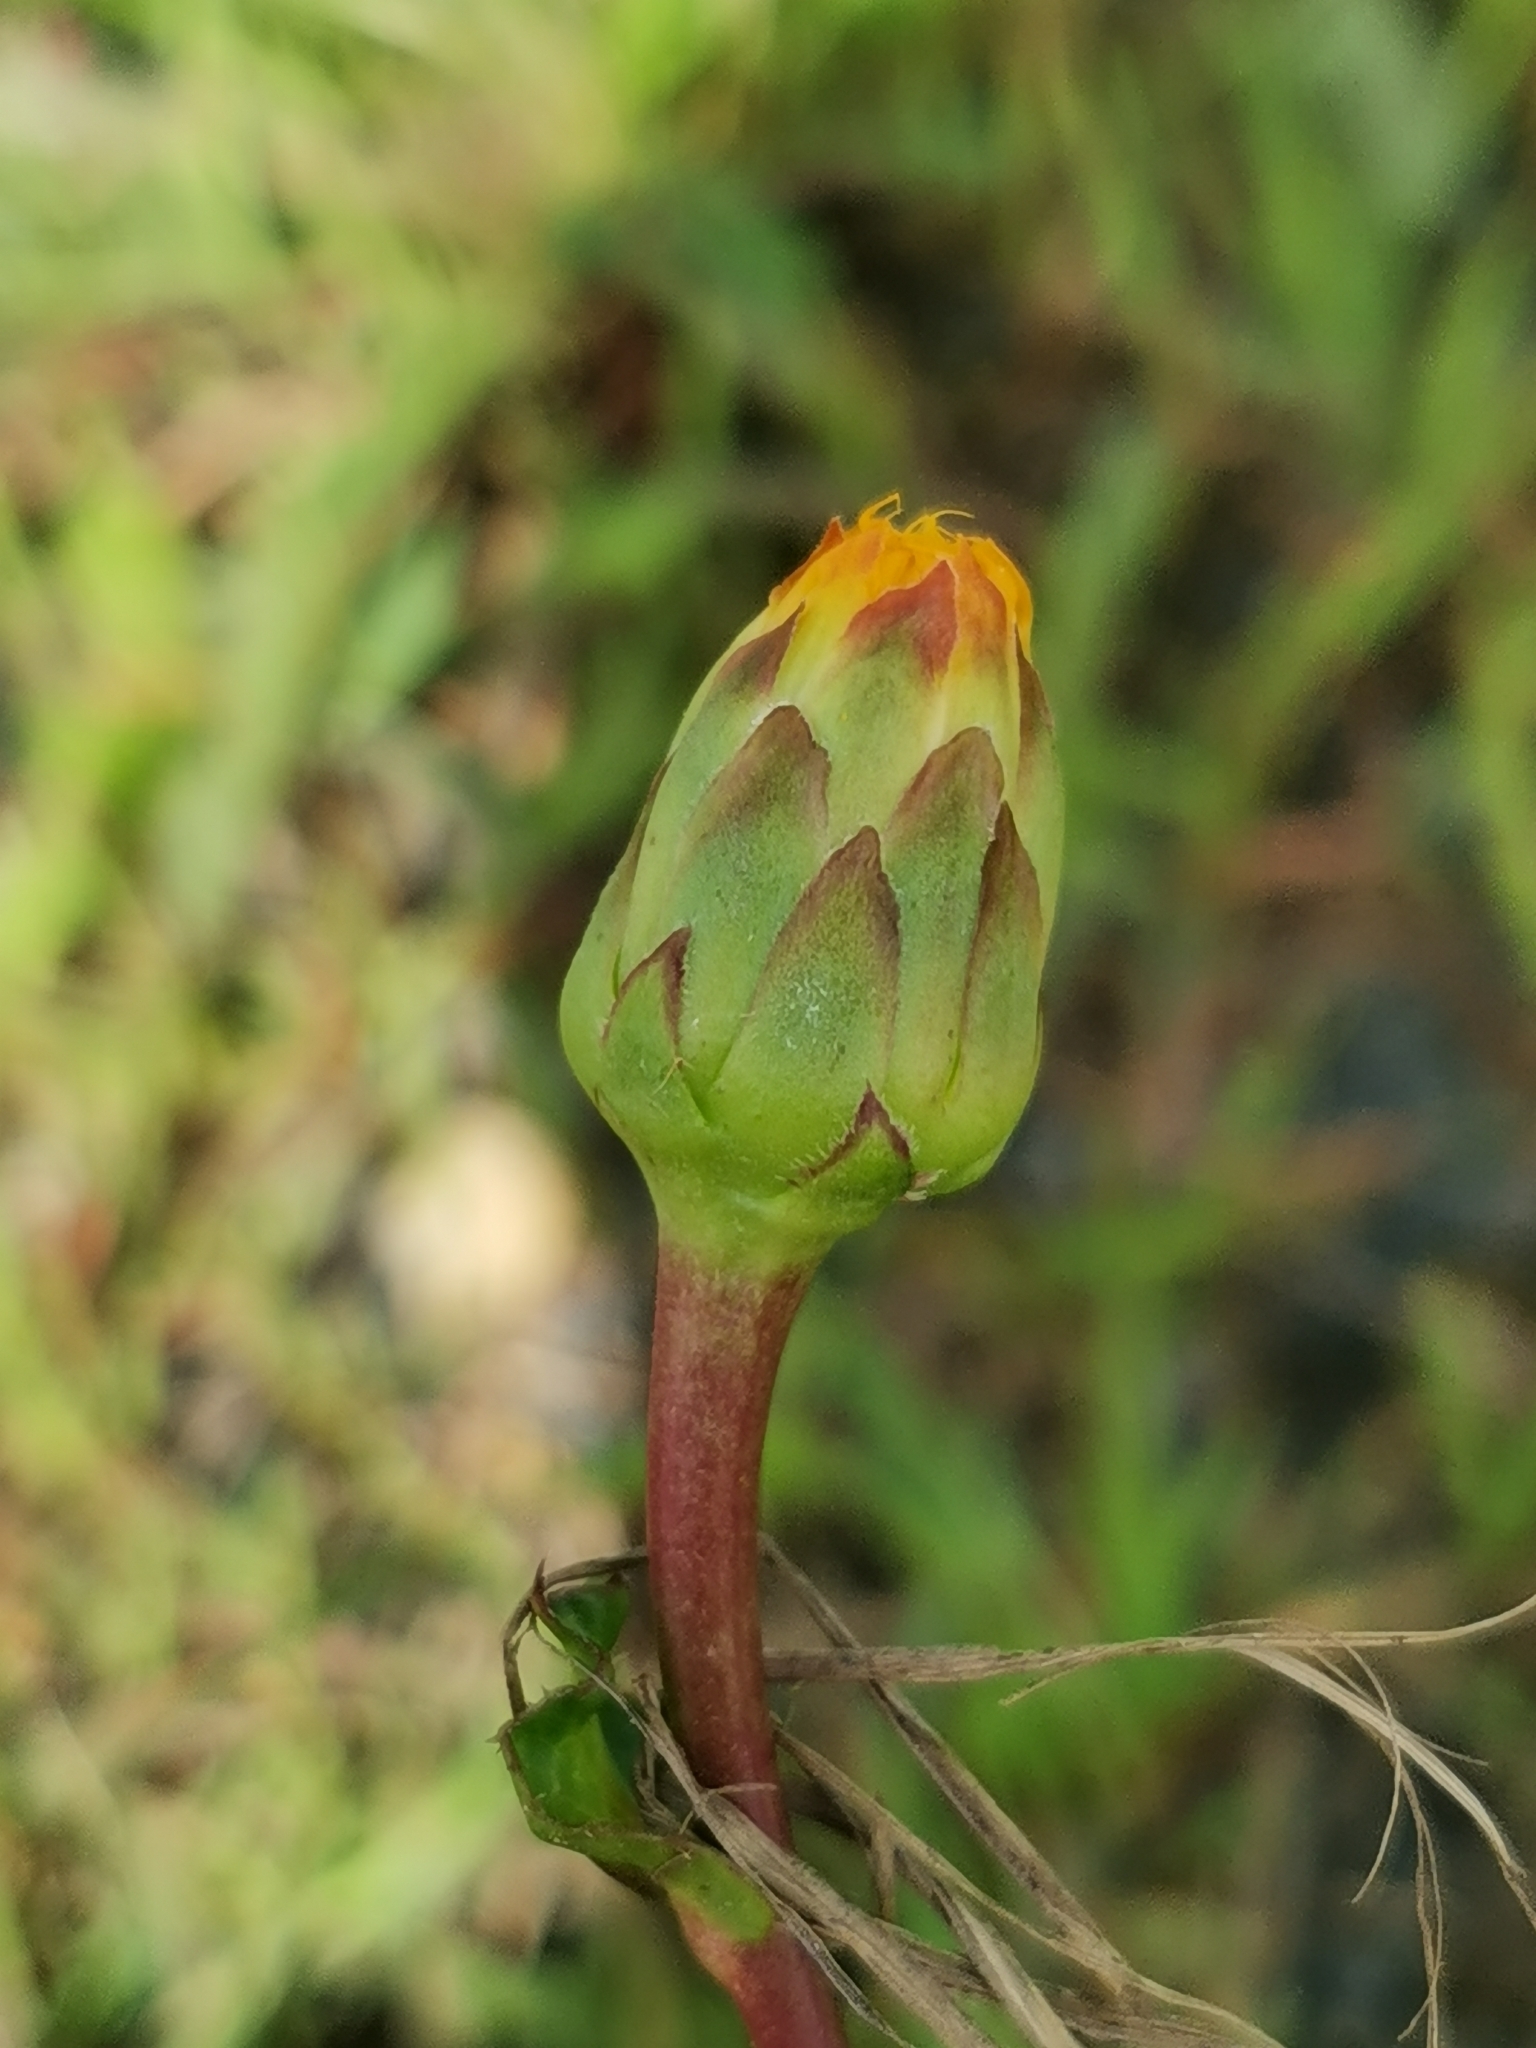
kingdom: Plantae
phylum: Tracheophyta
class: Magnoliopsida
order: Asterales
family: Asteraceae
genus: Trommsdorffia
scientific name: Trommsdorffia ciliata
